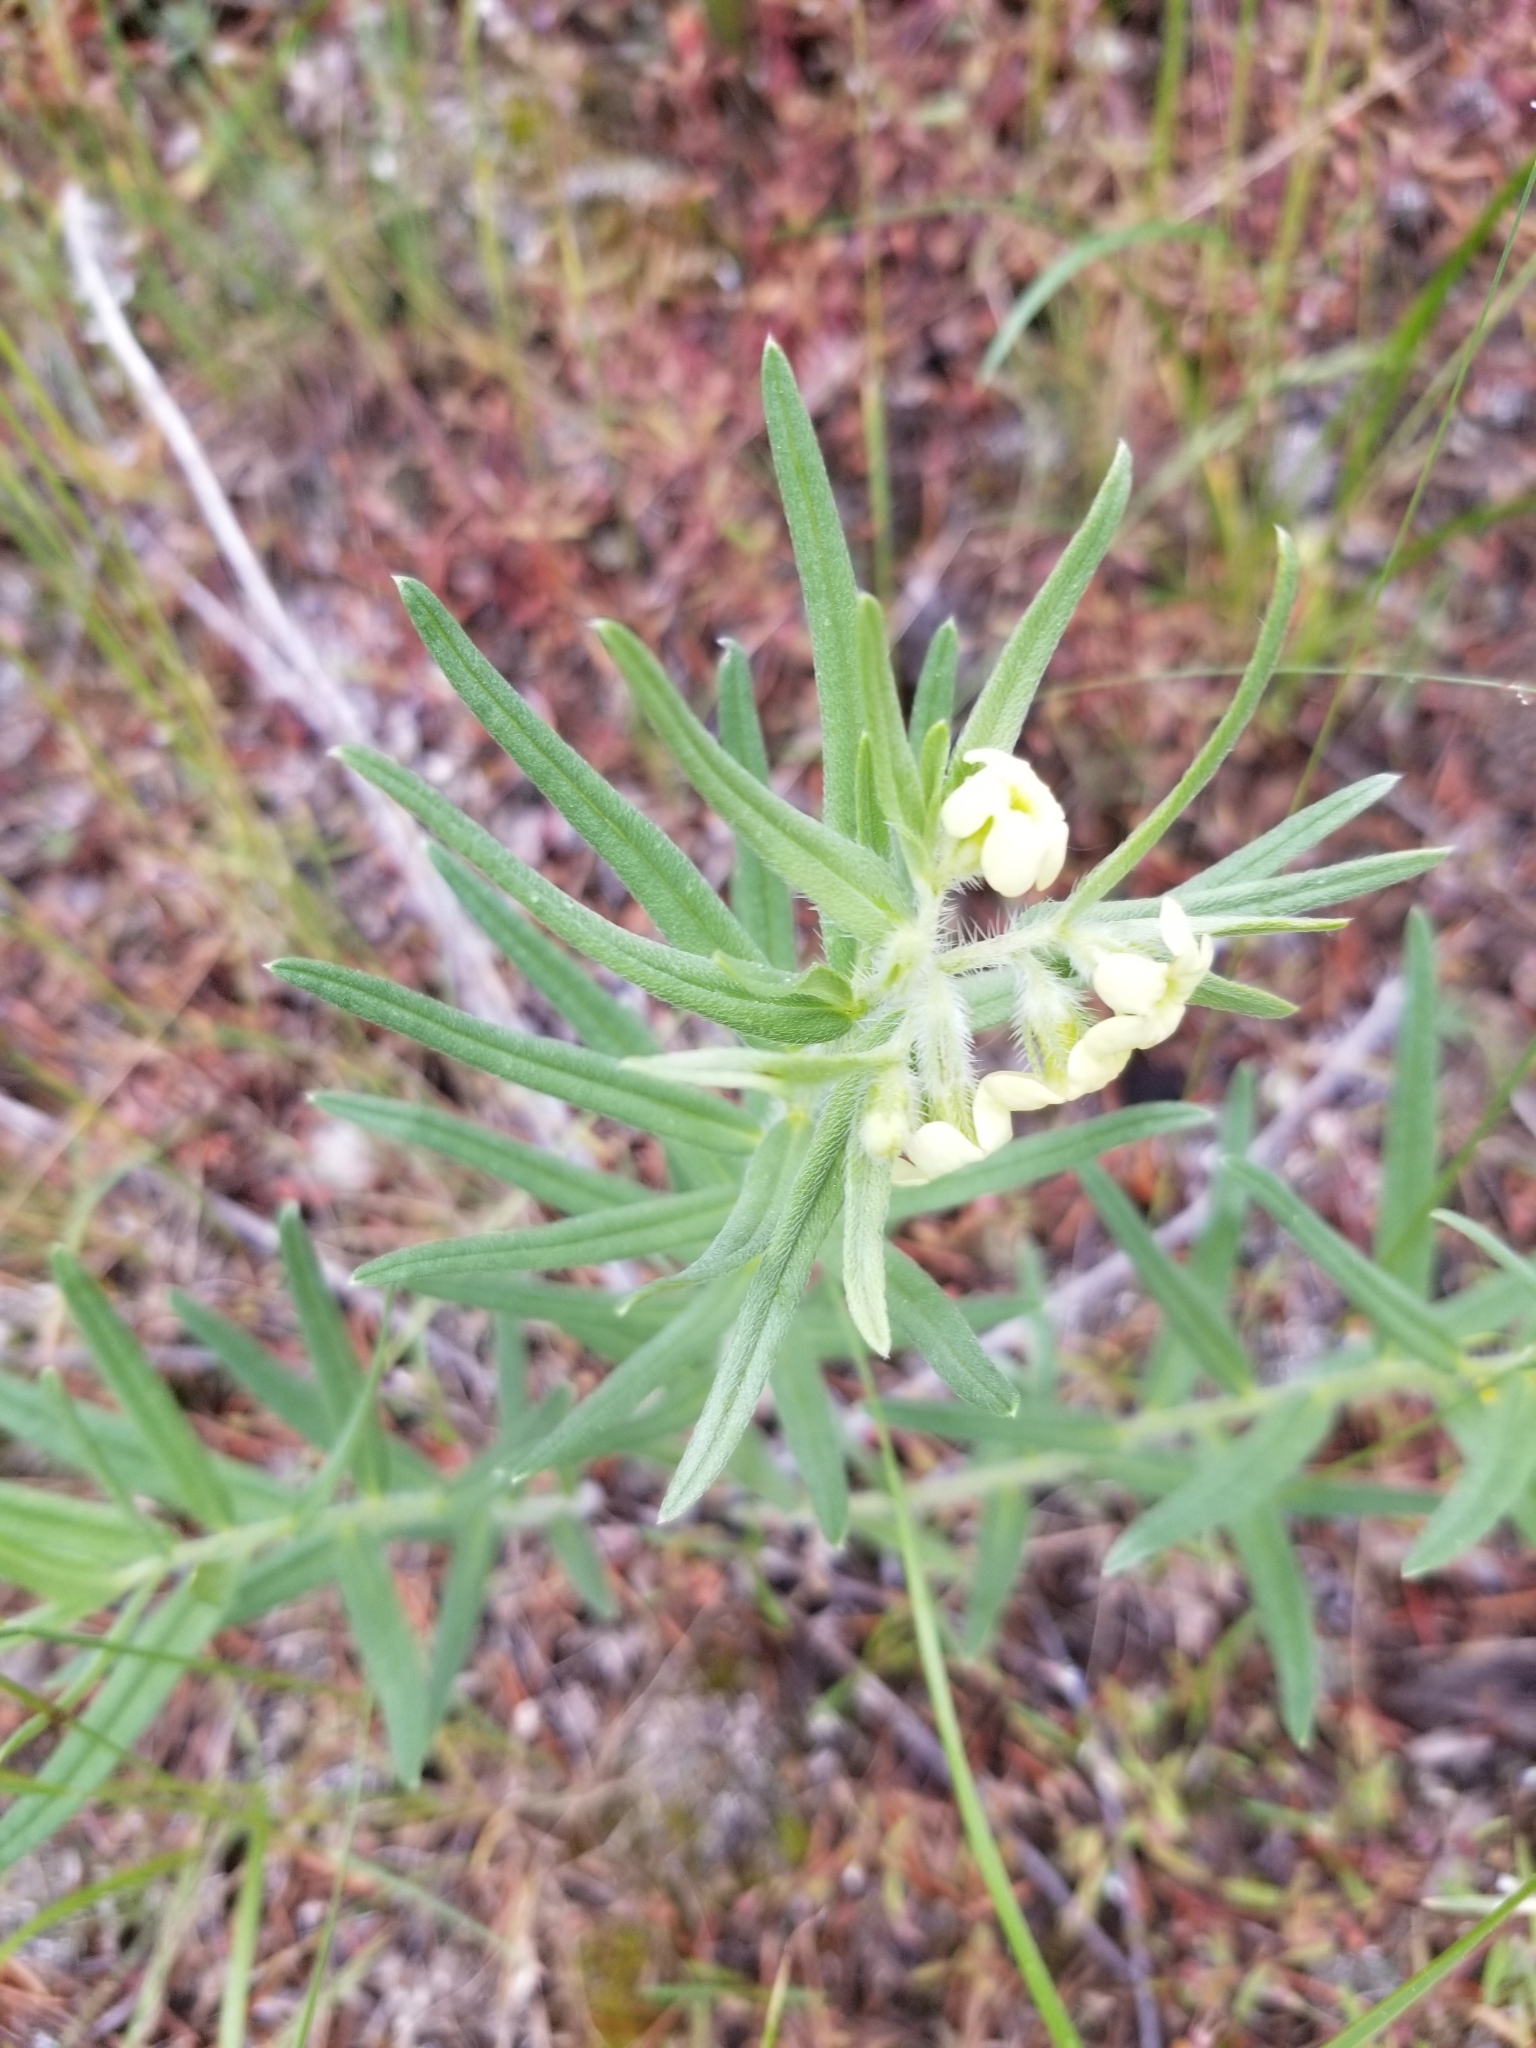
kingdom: Plantae
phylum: Tracheophyta
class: Magnoliopsida
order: Boraginales
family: Boraginaceae
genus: Lithospermum
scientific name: Lithospermum ruderale
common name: Western gromwell
